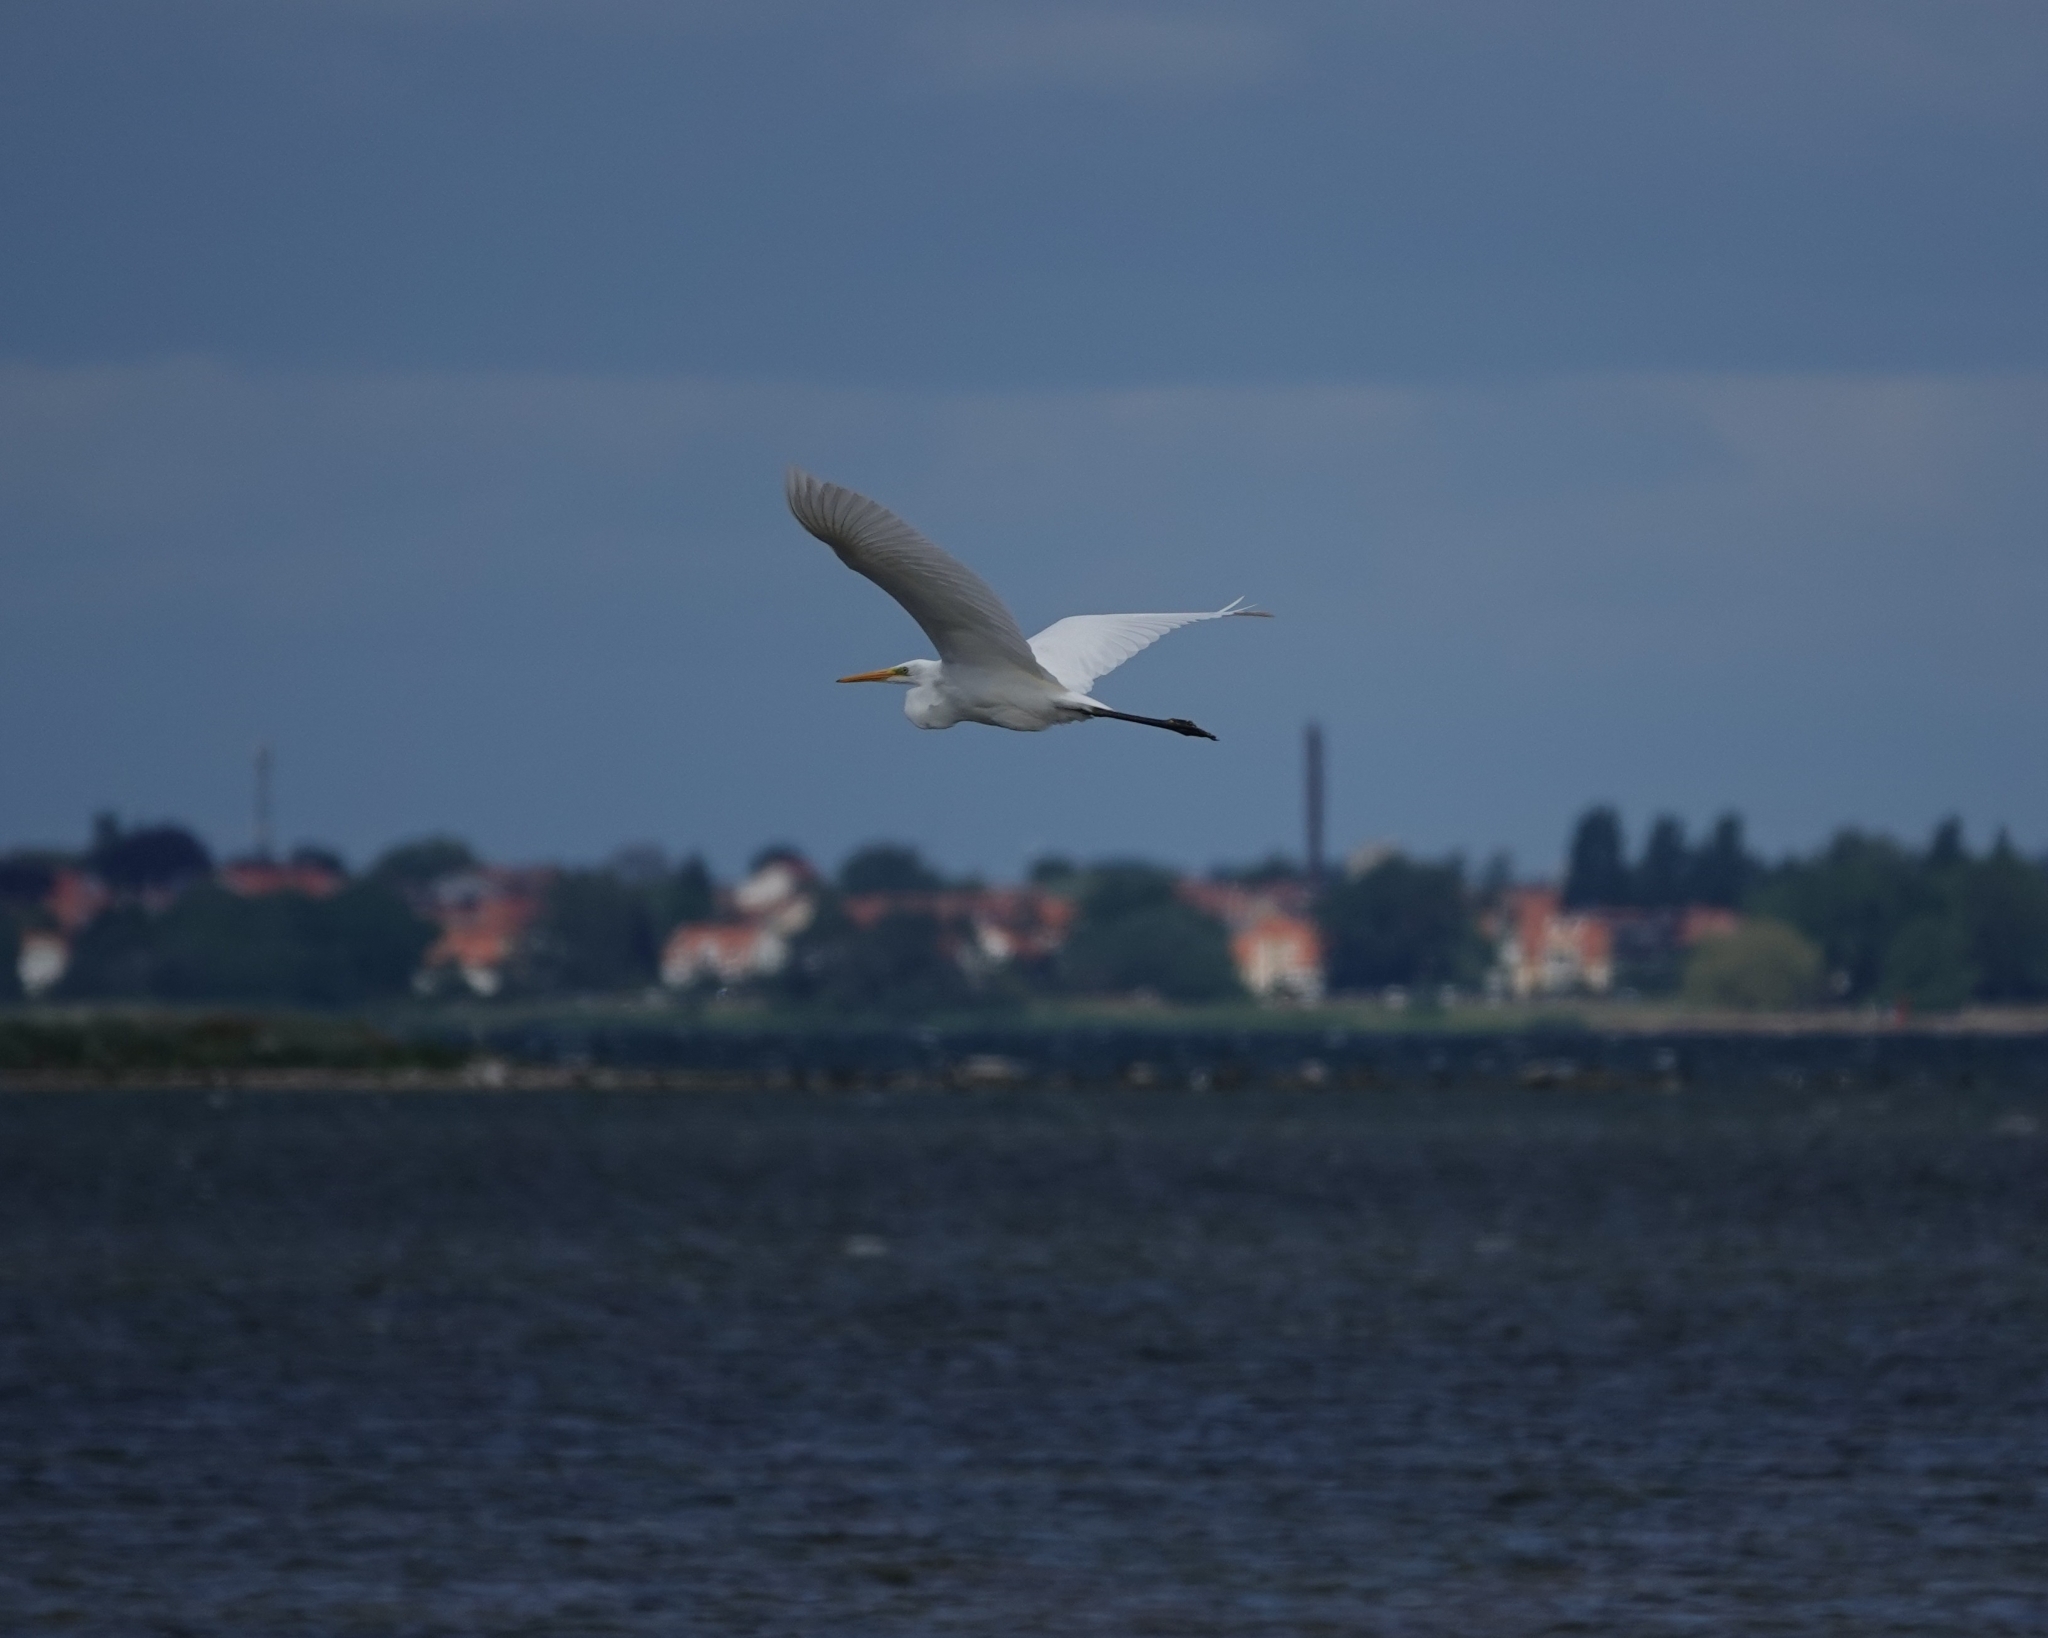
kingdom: Animalia
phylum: Chordata
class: Aves
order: Pelecaniformes
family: Ardeidae
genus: Ardea
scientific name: Ardea alba
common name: Great egret
